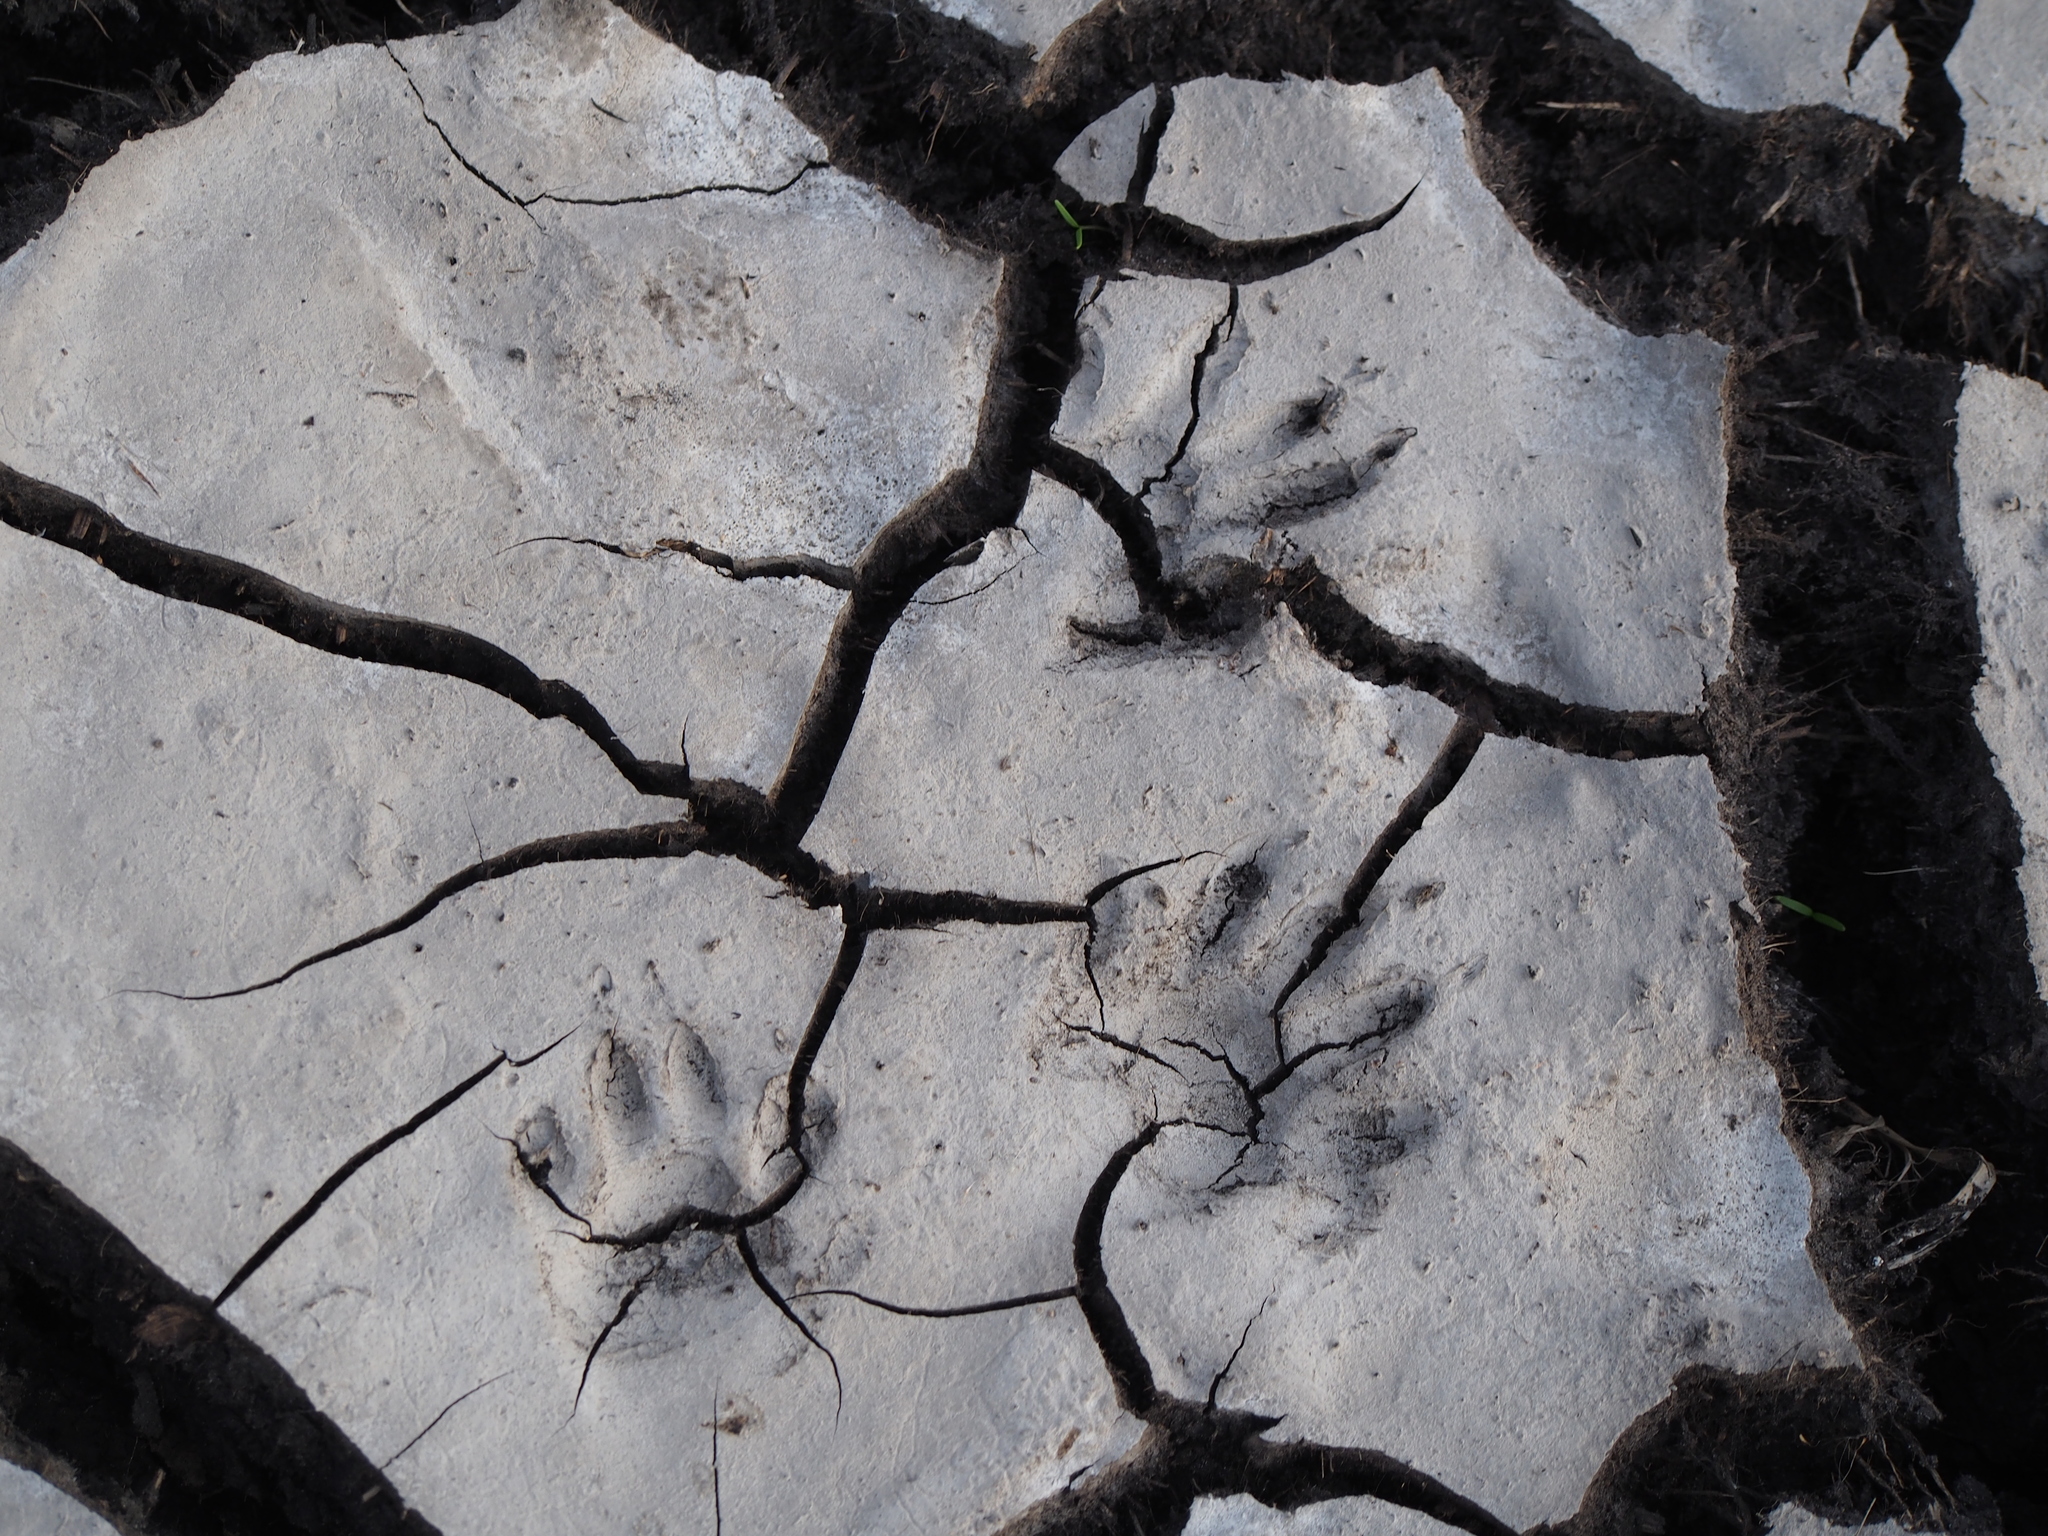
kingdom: Animalia
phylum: Chordata
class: Mammalia
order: Carnivora
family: Procyonidae
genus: Procyon
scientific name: Procyon lotor
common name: Raccoon
